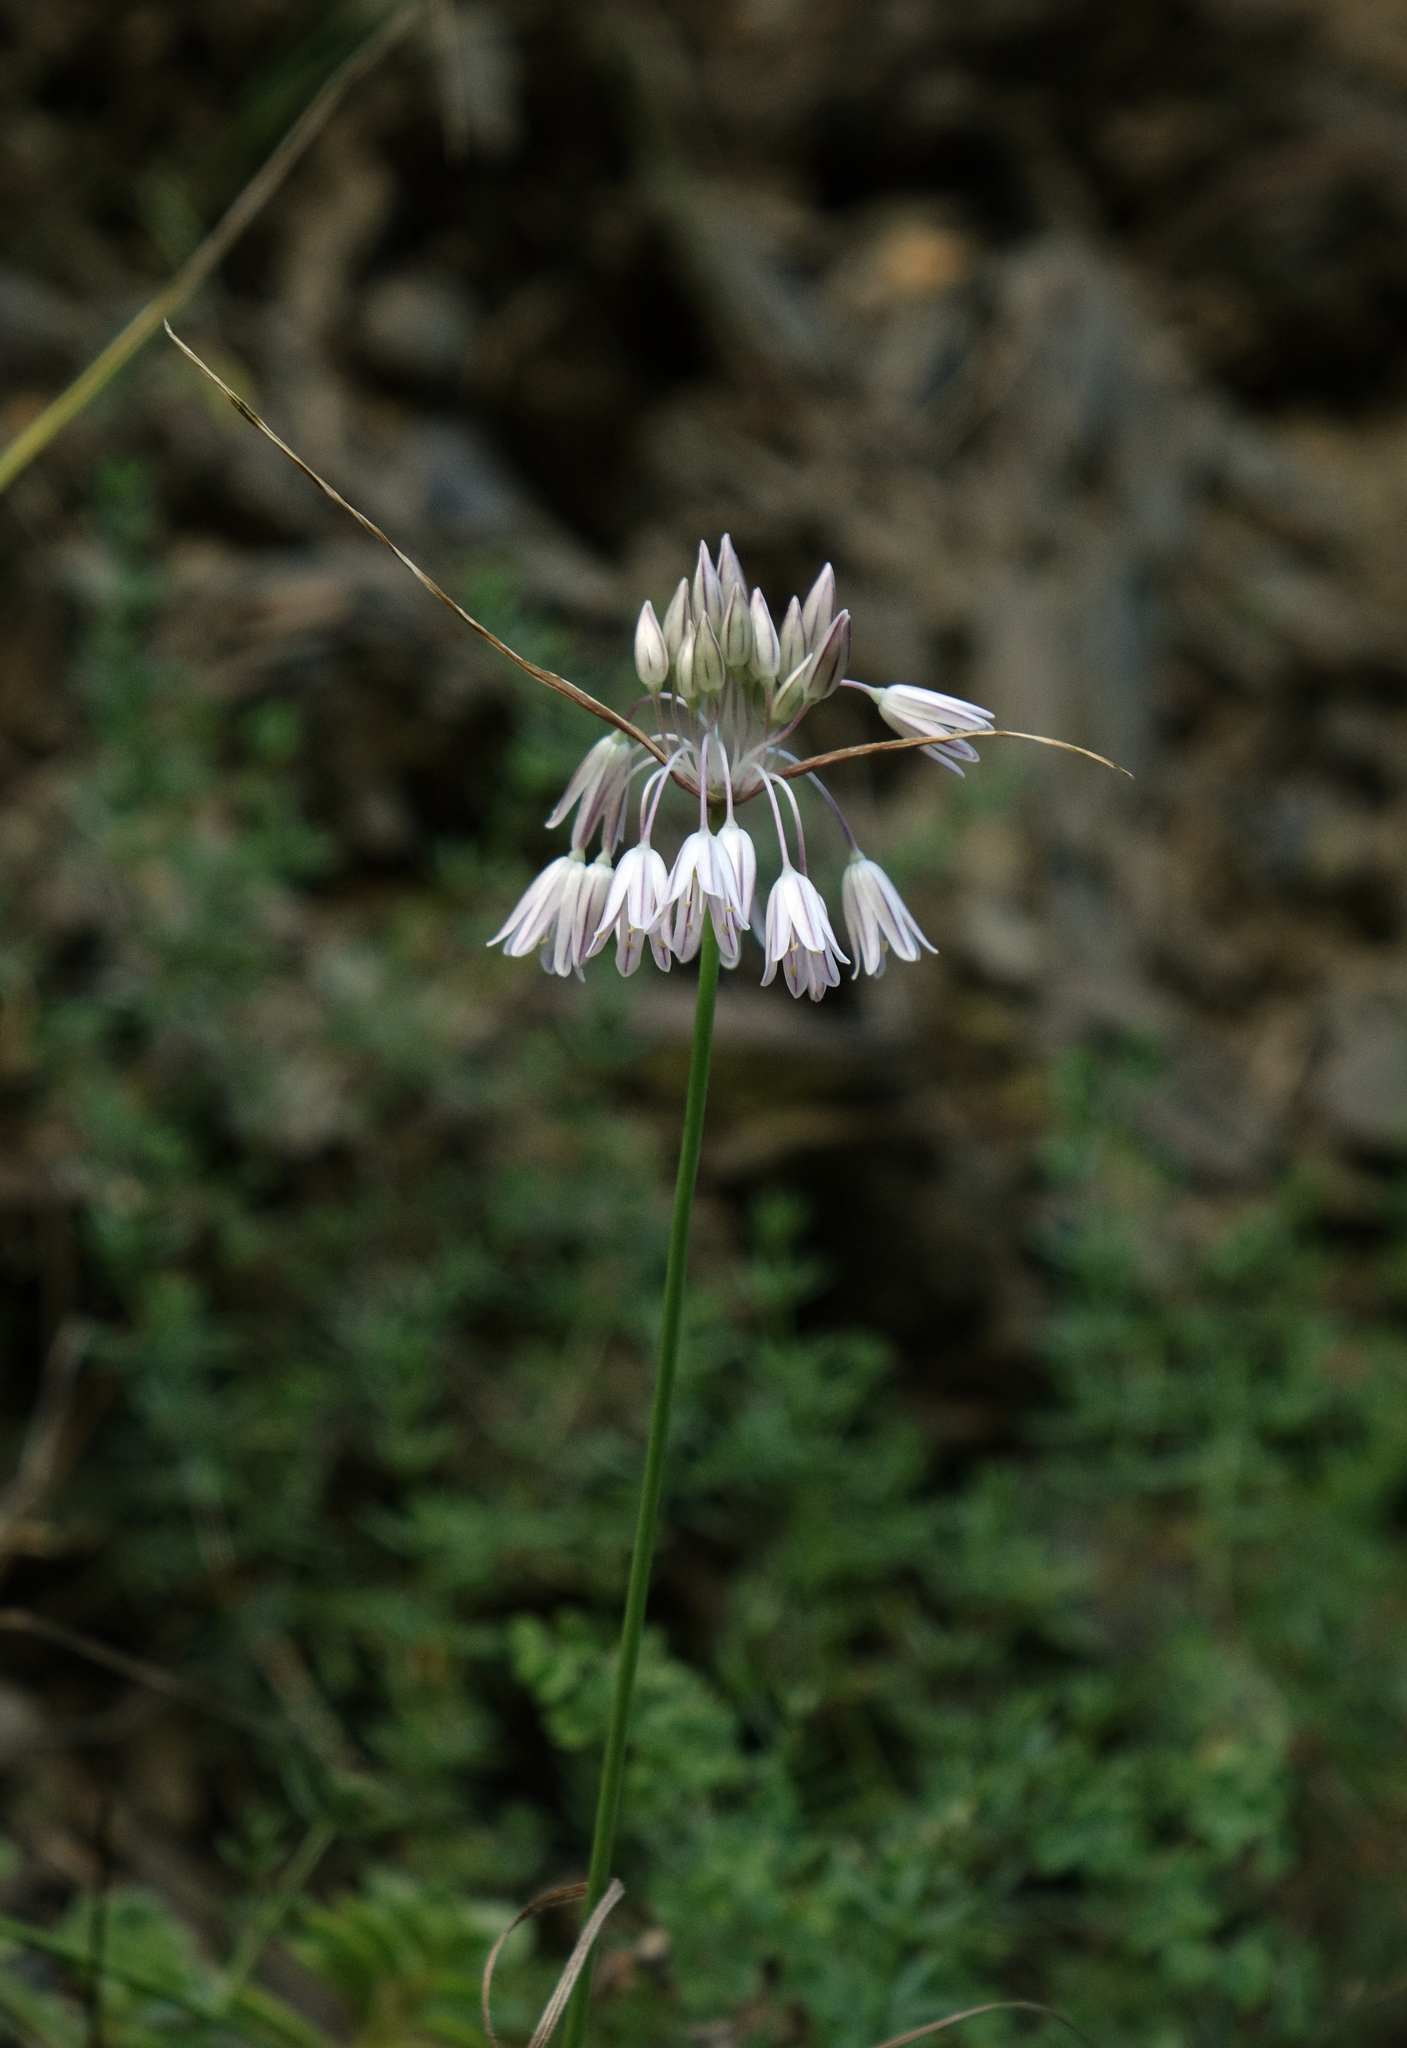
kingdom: Plantae
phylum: Tracheophyta
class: Liliopsida
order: Asparagales
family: Amaryllidaceae
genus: Allium
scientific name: Allium kunthianum
